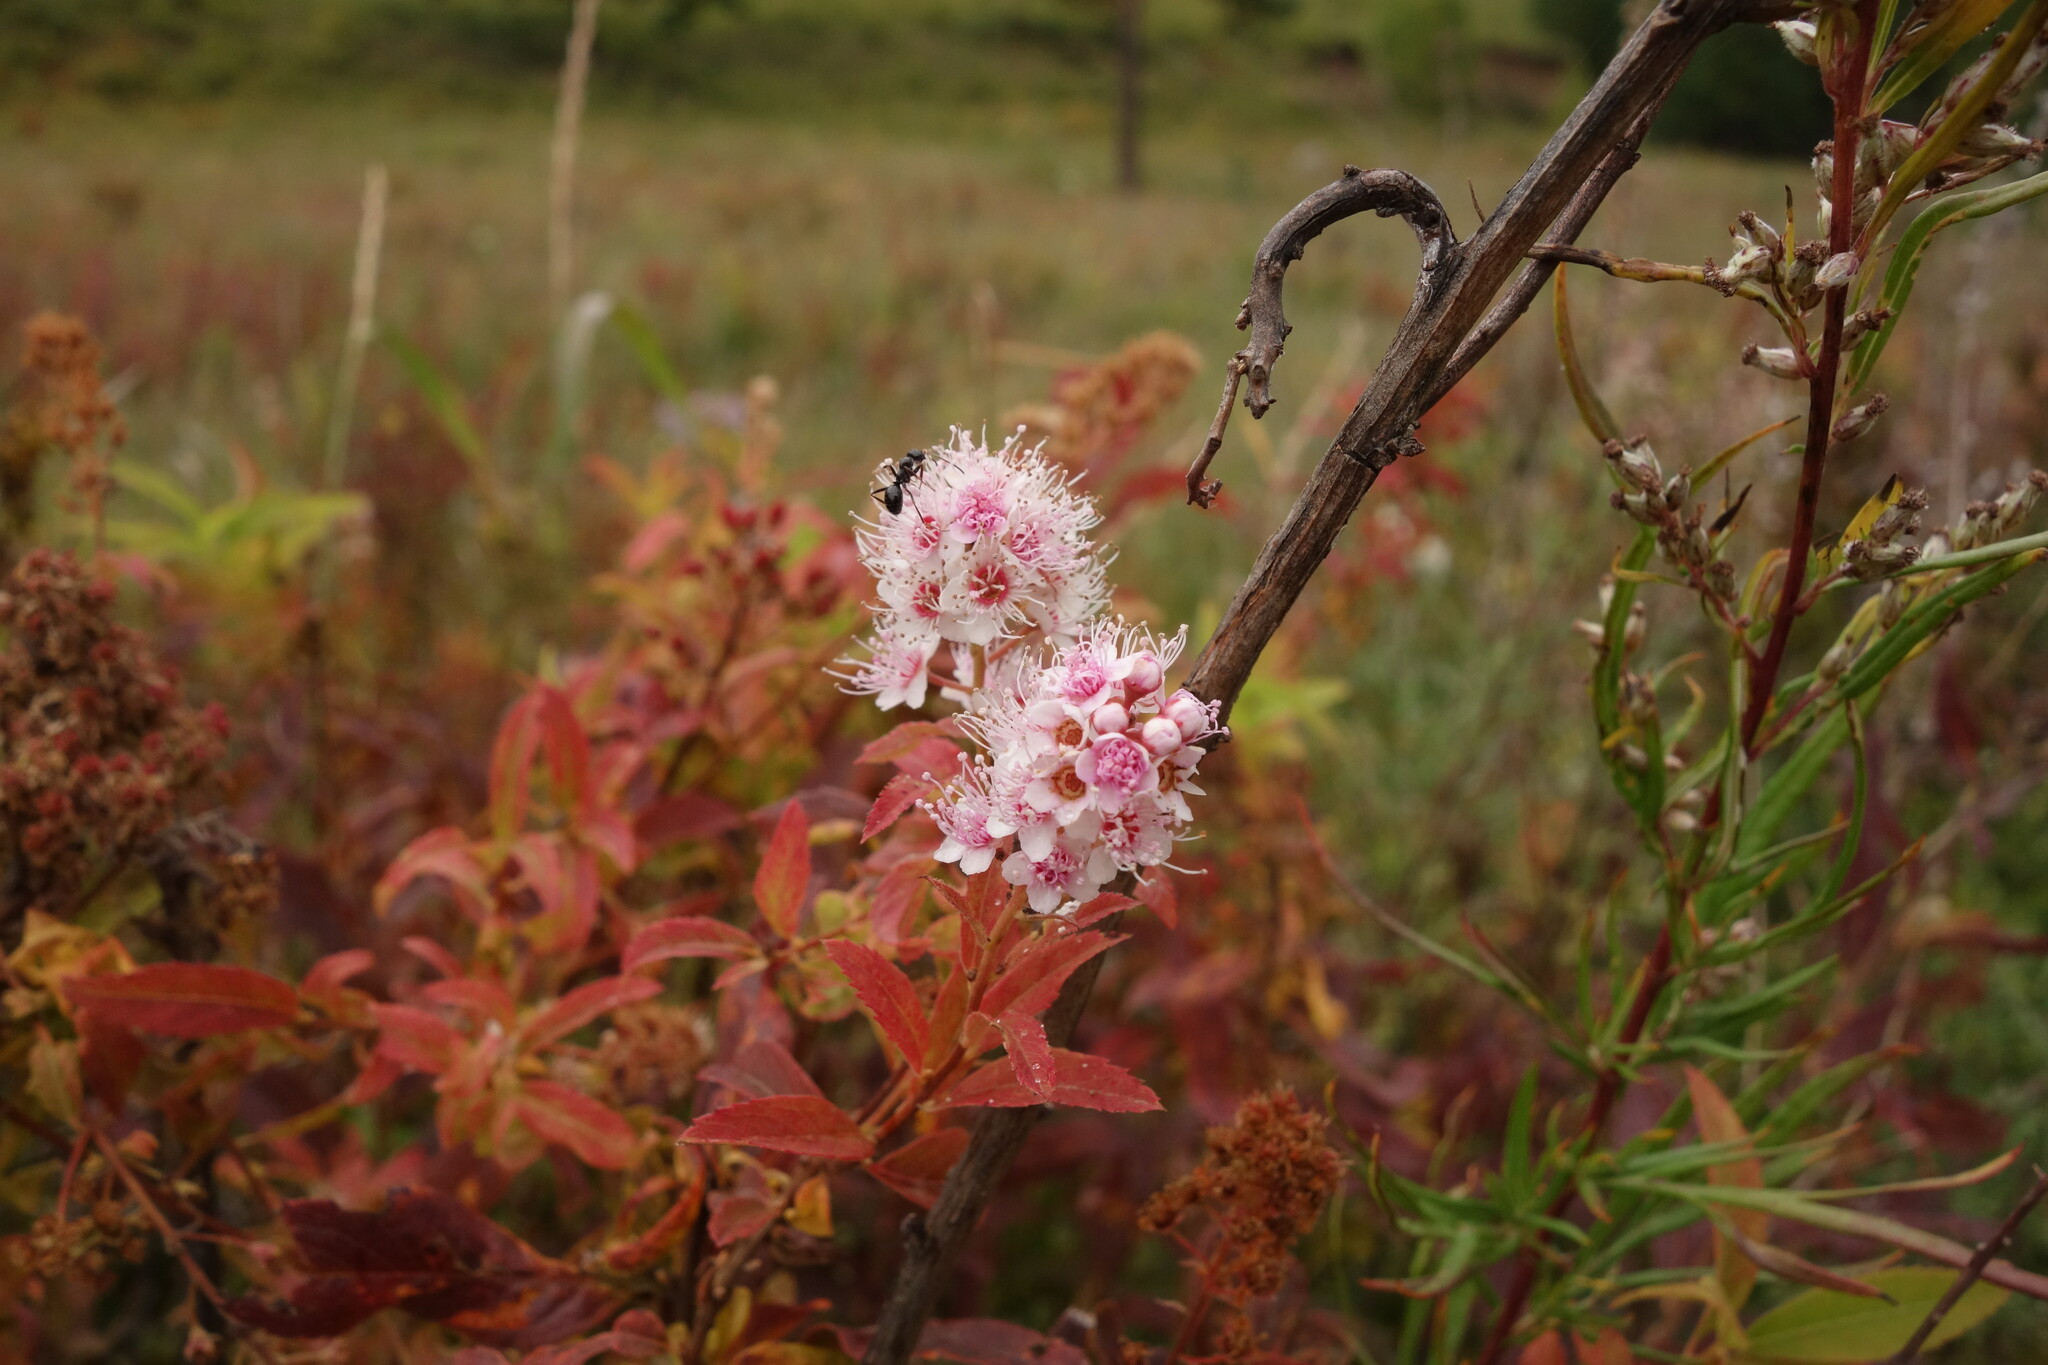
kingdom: Plantae
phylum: Tracheophyta
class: Magnoliopsida
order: Rosales
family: Rosaceae
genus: Spiraea
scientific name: Spiraea salicifolia
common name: Bridewort
